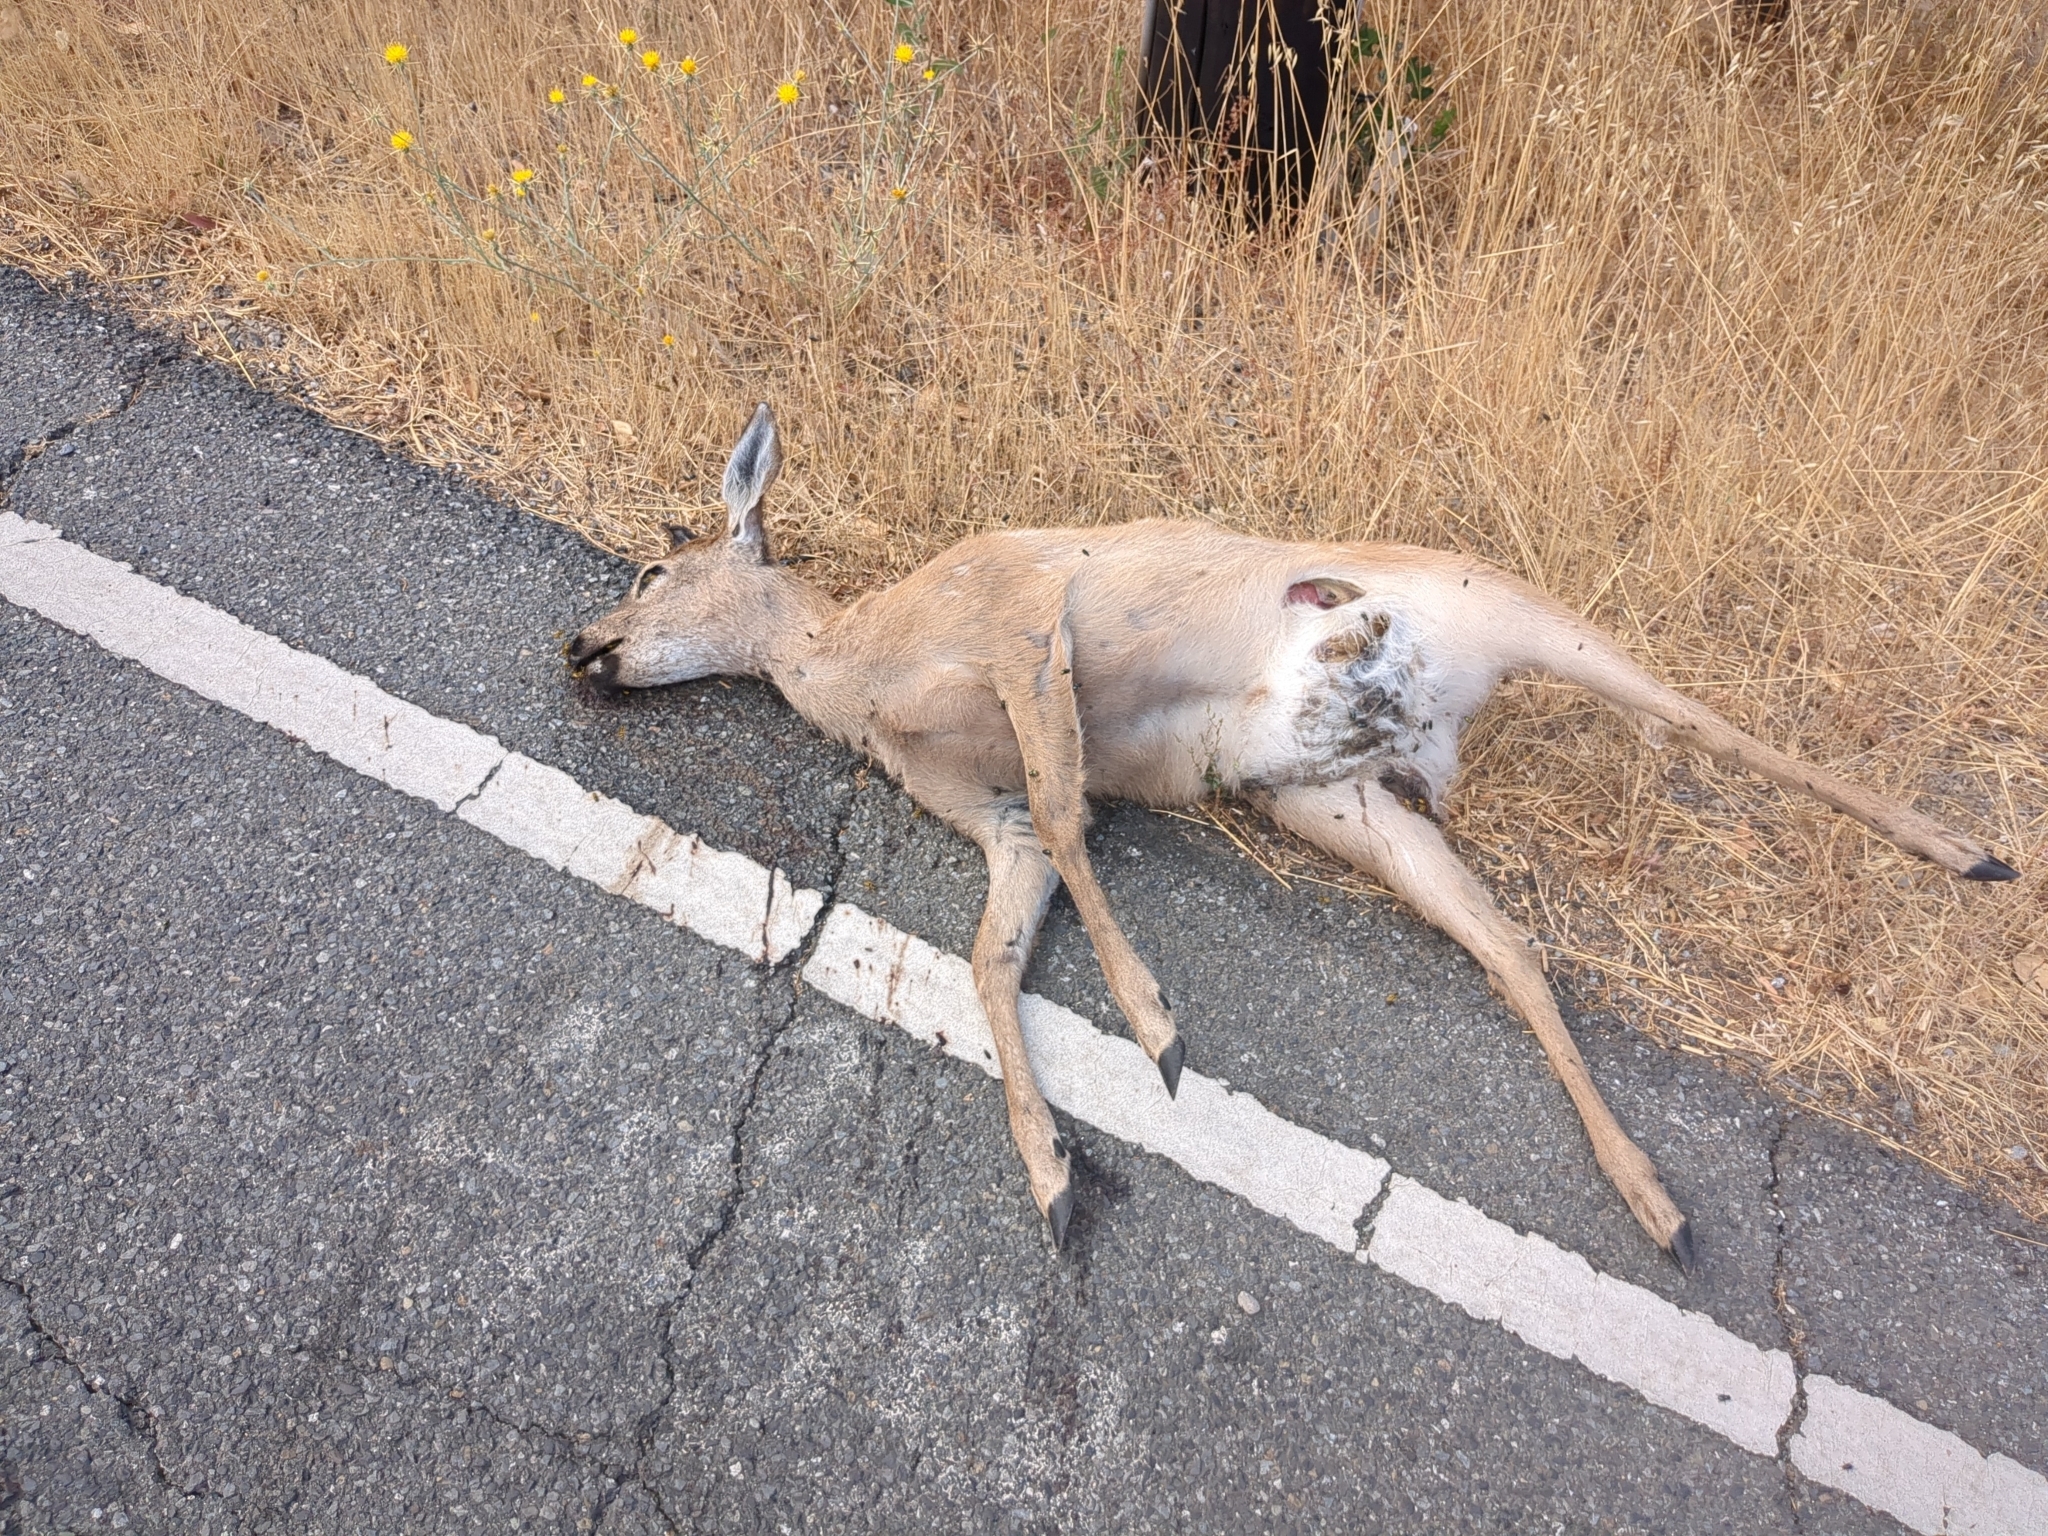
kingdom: Animalia
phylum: Chordata
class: Mammalia
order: Artiodactyla
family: Cervidae
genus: Odocoileus
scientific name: Odocoileus hemionus
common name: Mule deer
